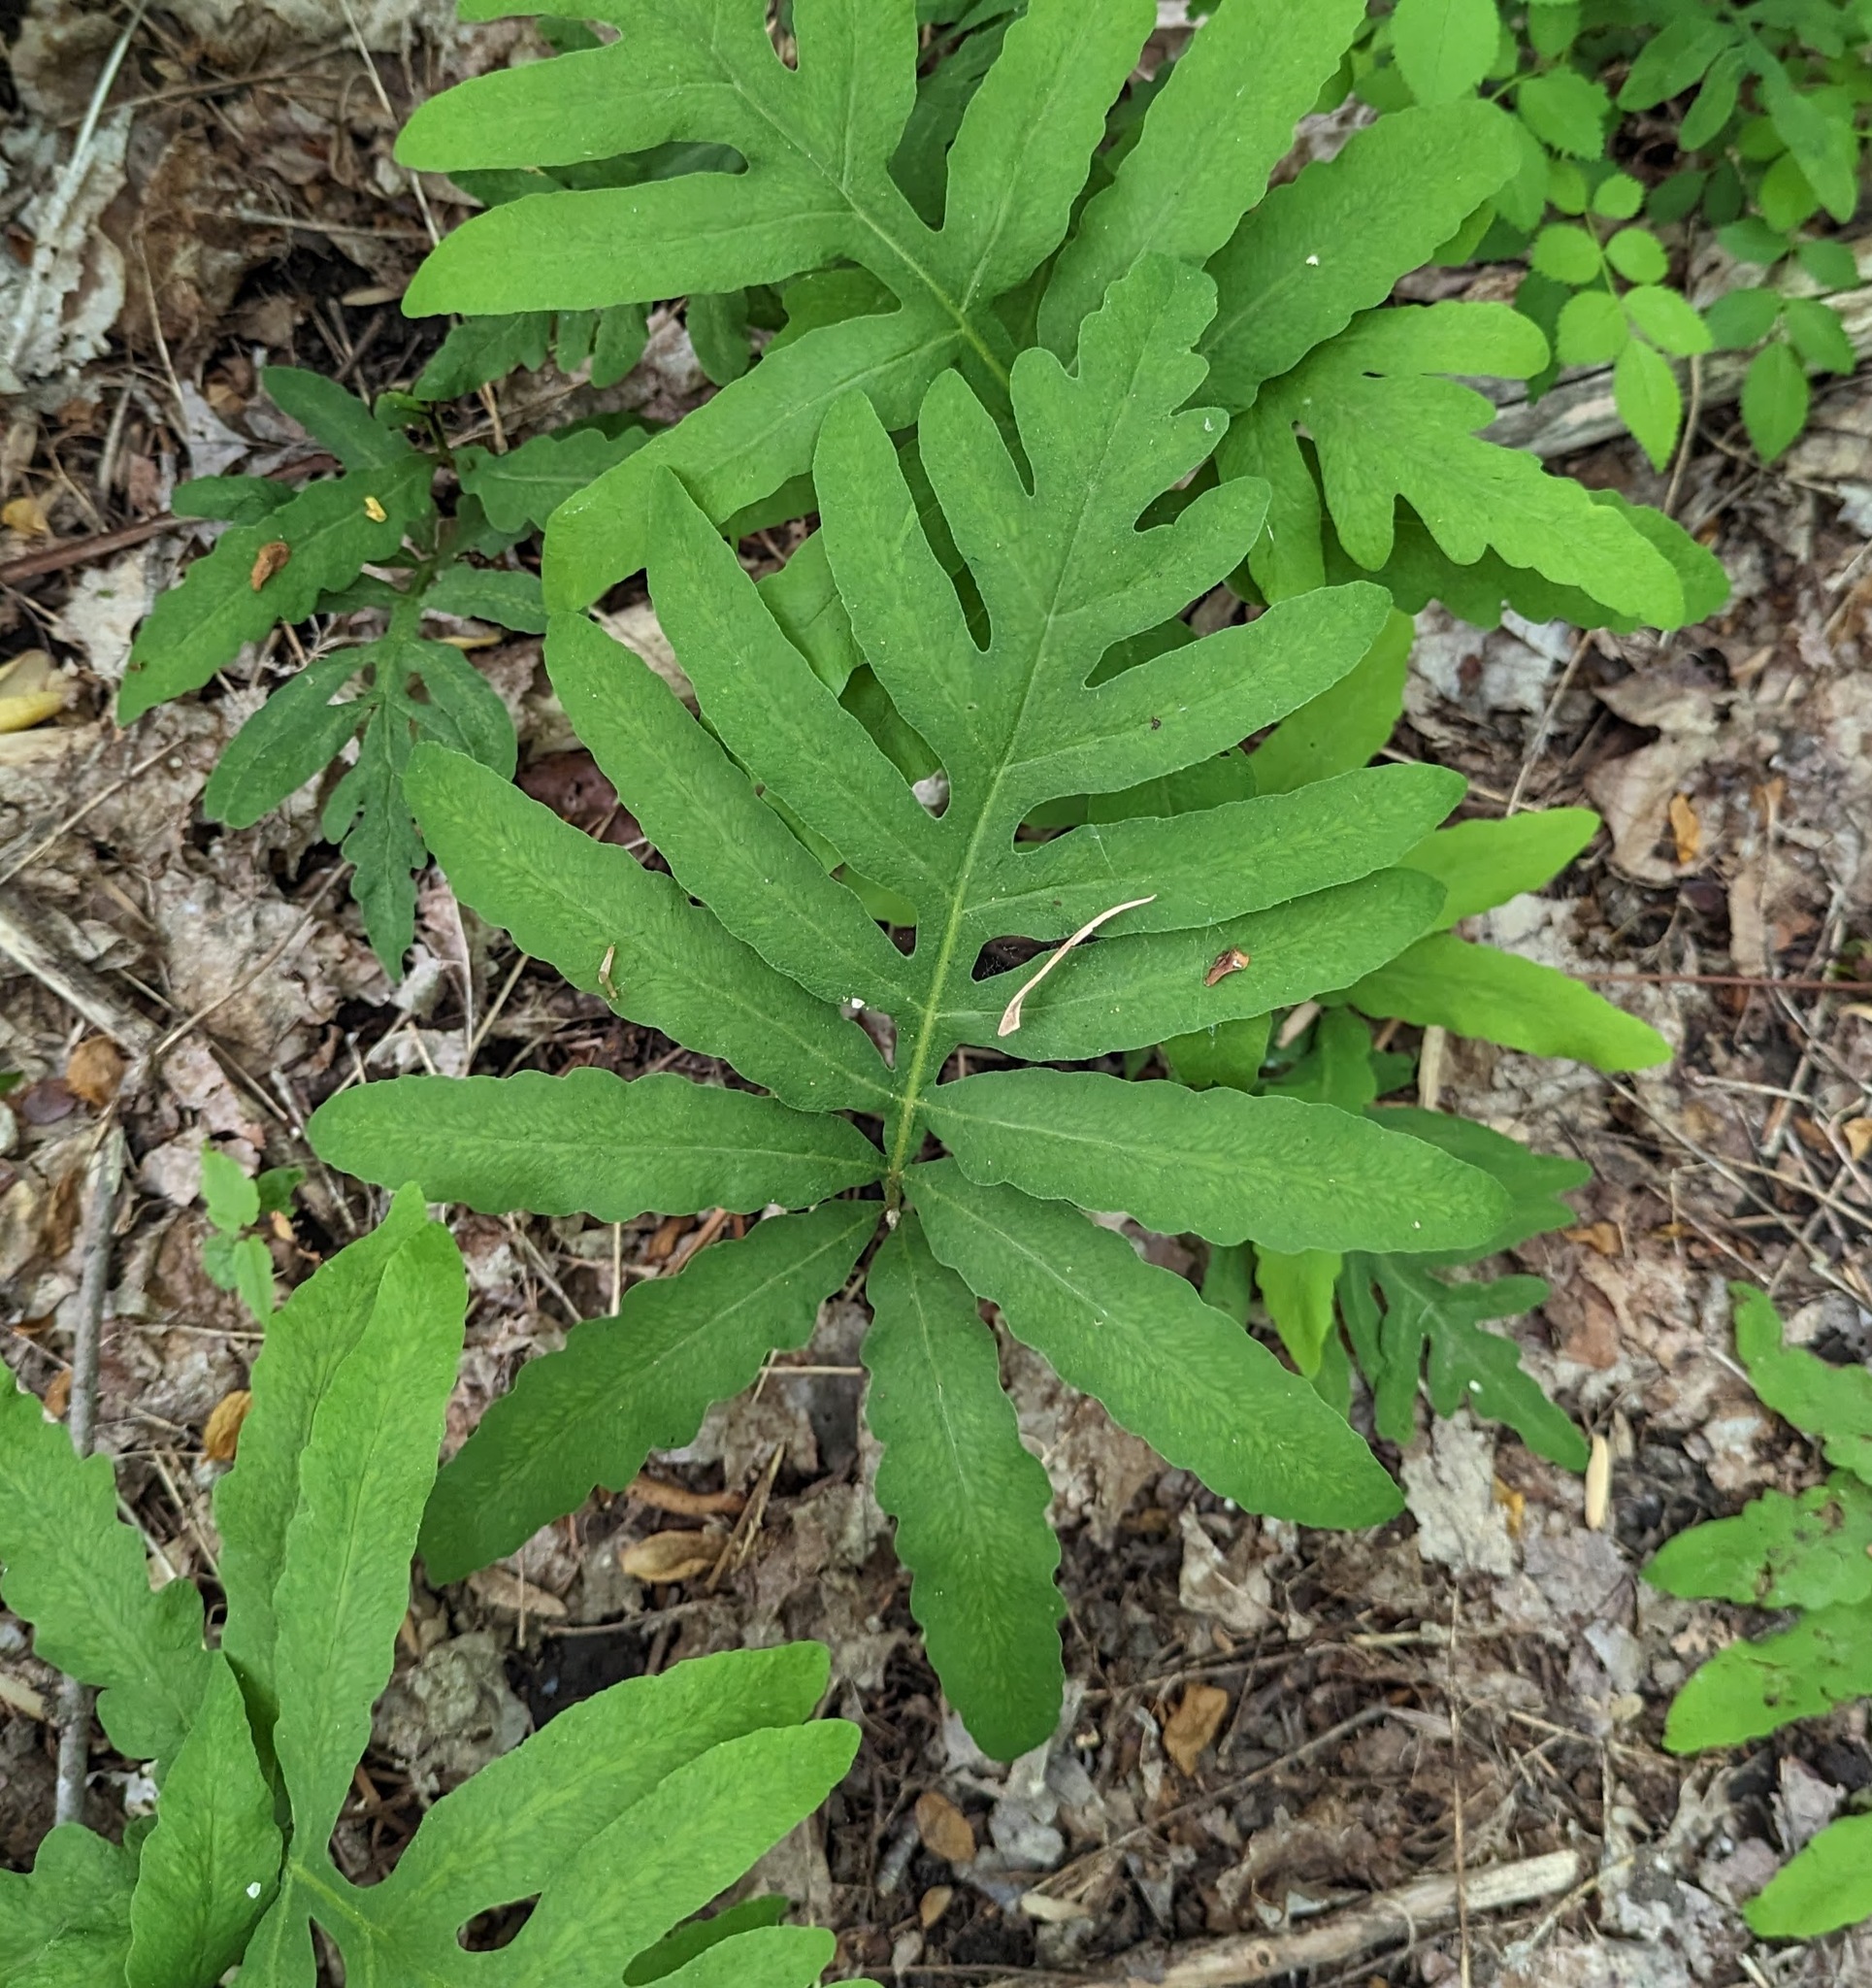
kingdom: Plantae
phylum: Tracheophyta
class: Polypodiopsida
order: Polypodiales
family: Onocleaceae
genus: Onoclea
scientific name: Onoclea sensibilis
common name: Sensitive fern
